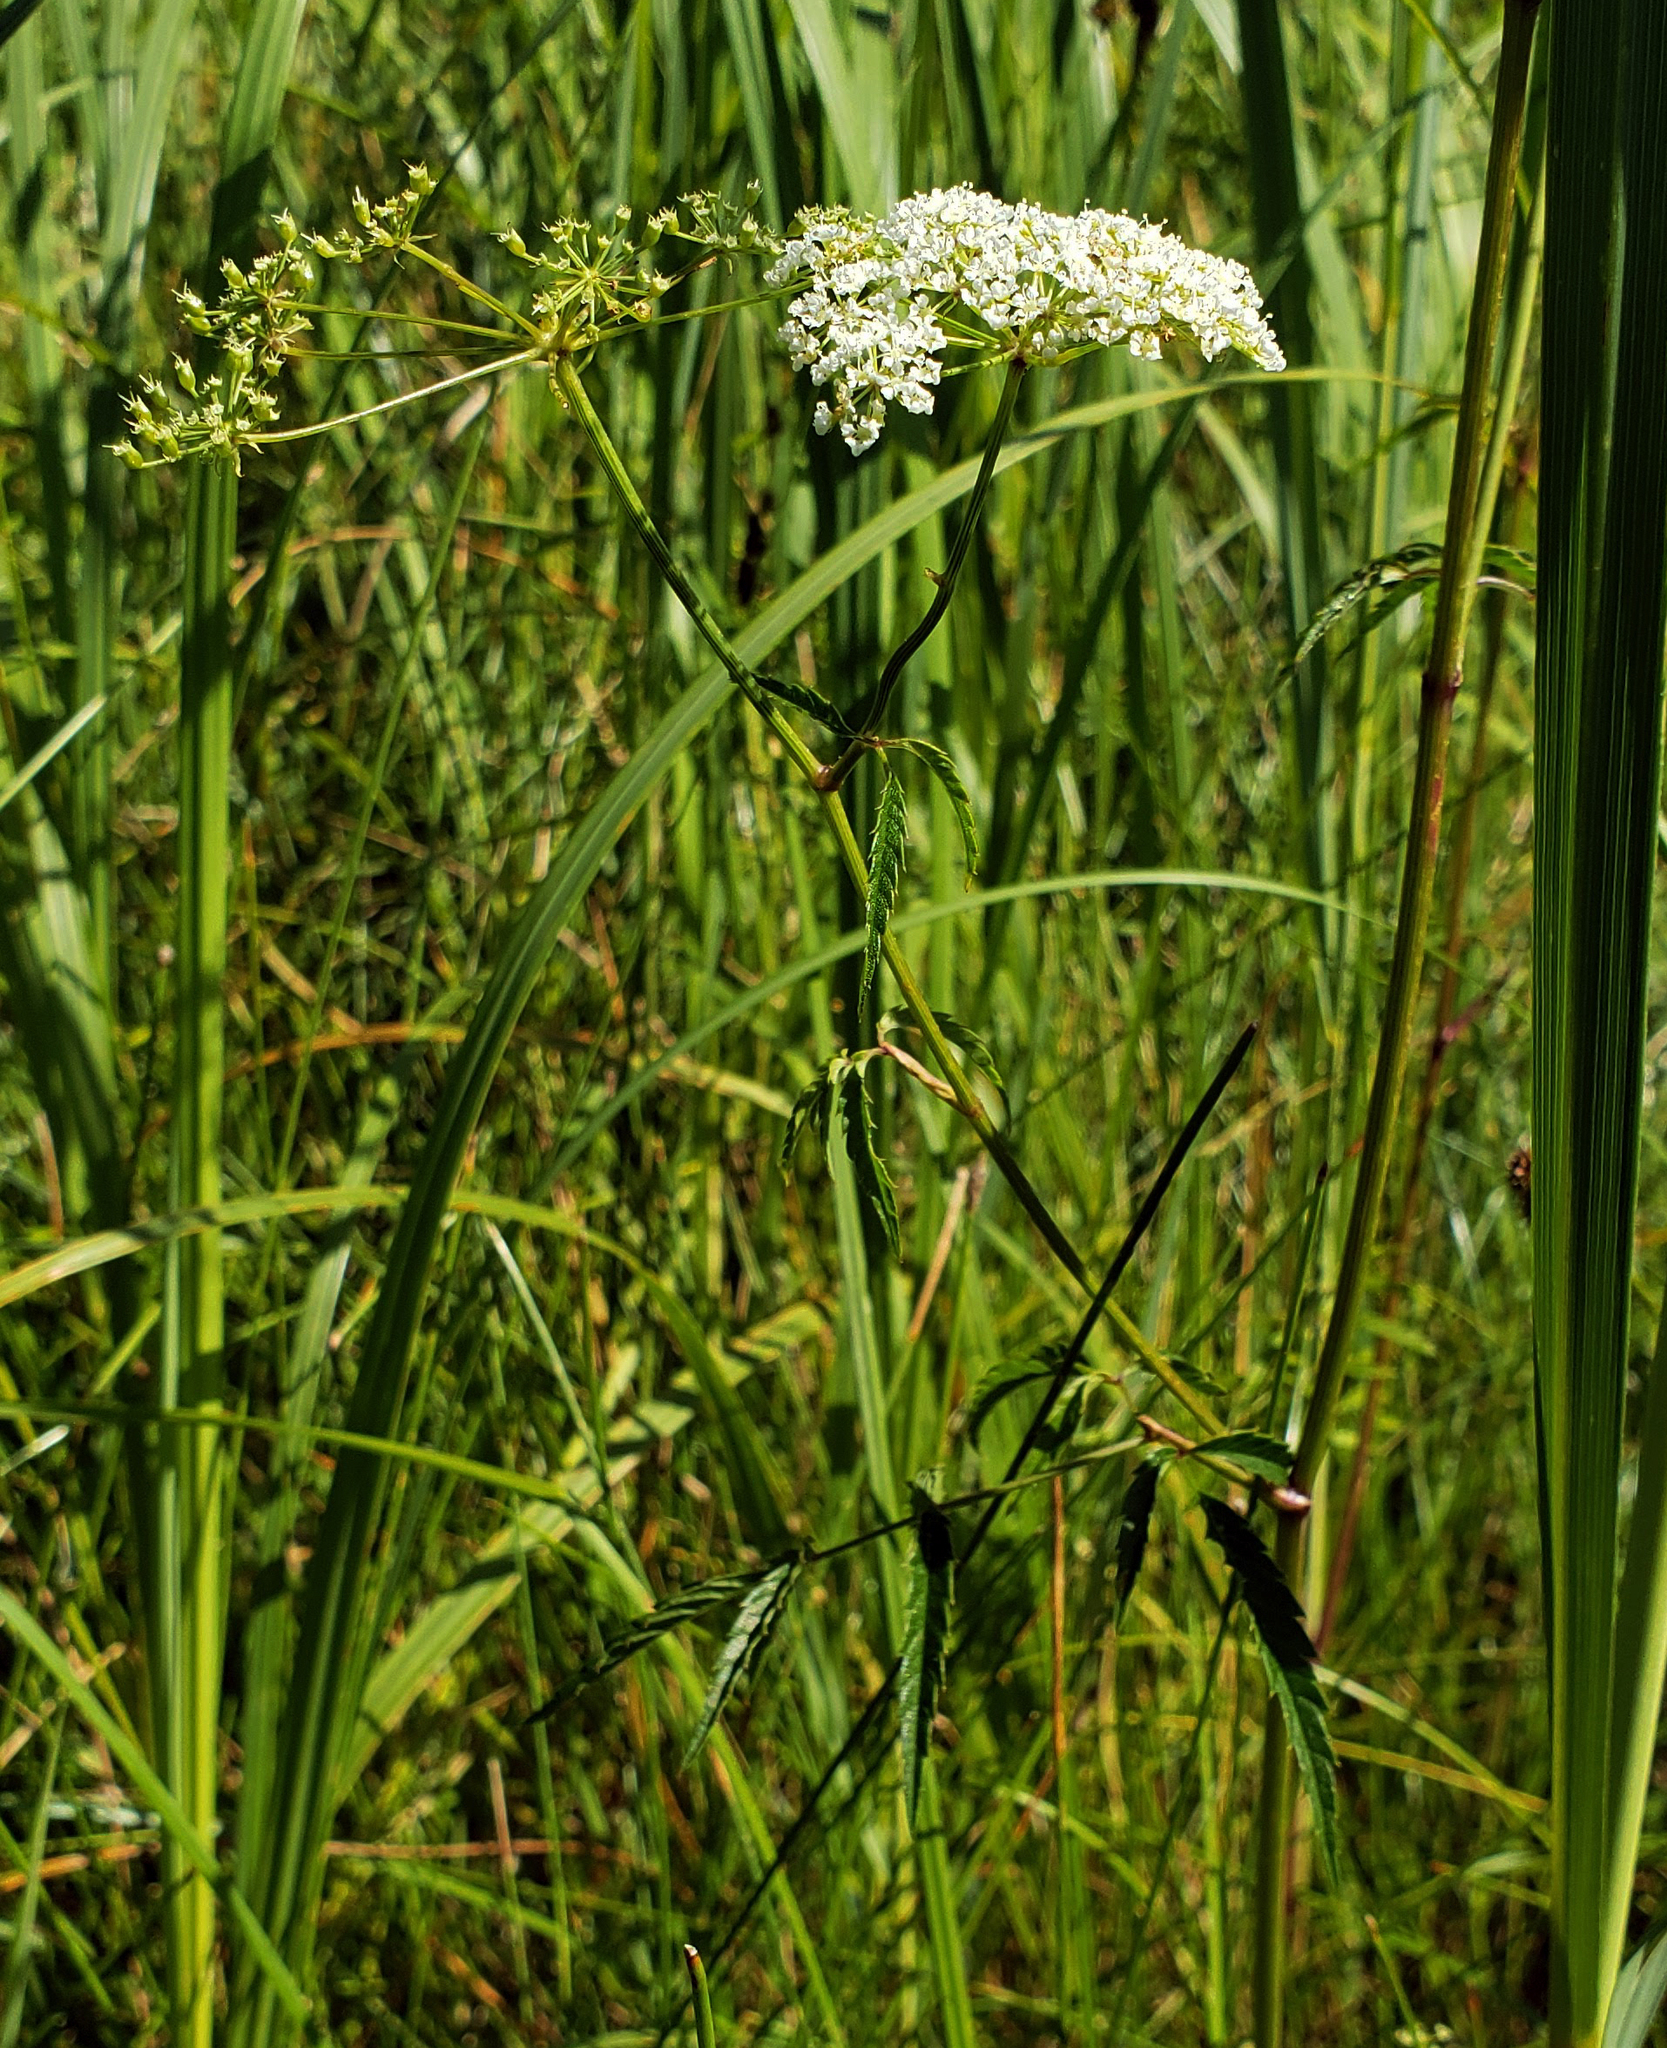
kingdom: Plantae
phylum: Tracheophyta
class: Magnoliopsida
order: Apiales
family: Apiaceae
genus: Cicuta
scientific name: Cicuta maculata
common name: Spotted cowbane
